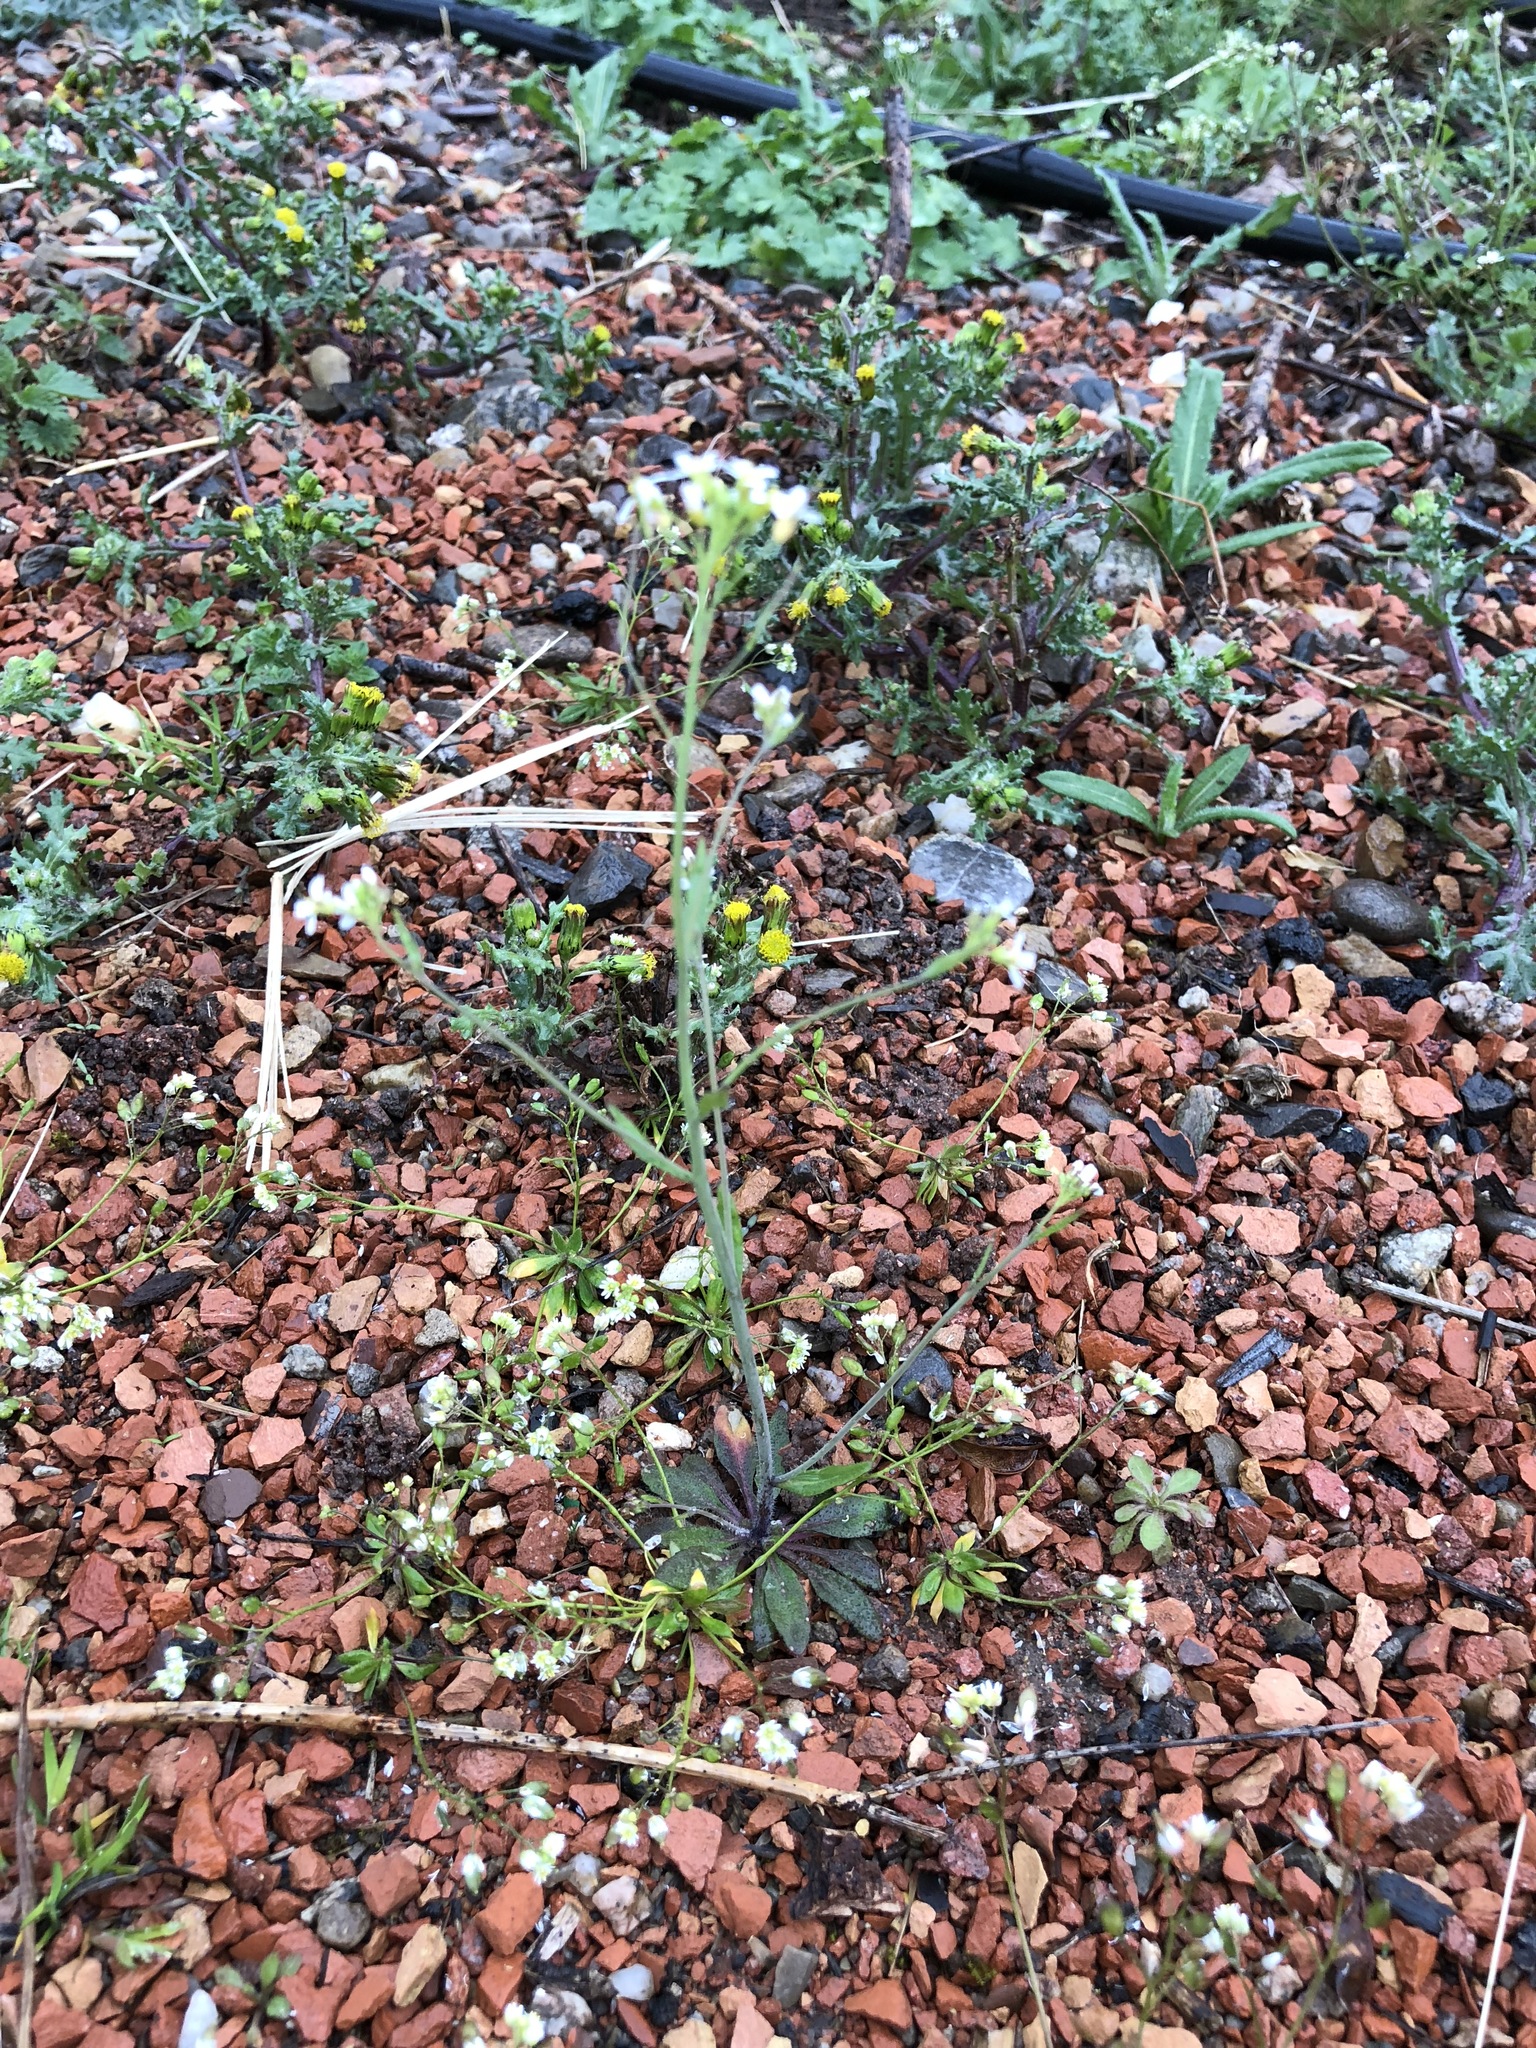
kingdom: Plantae
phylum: Tracheophyta
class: Magnoliopsida
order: Brassicales
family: Brassicaceae
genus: Arabidopsis
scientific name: Arabidopsis thaliana
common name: Thale cress
